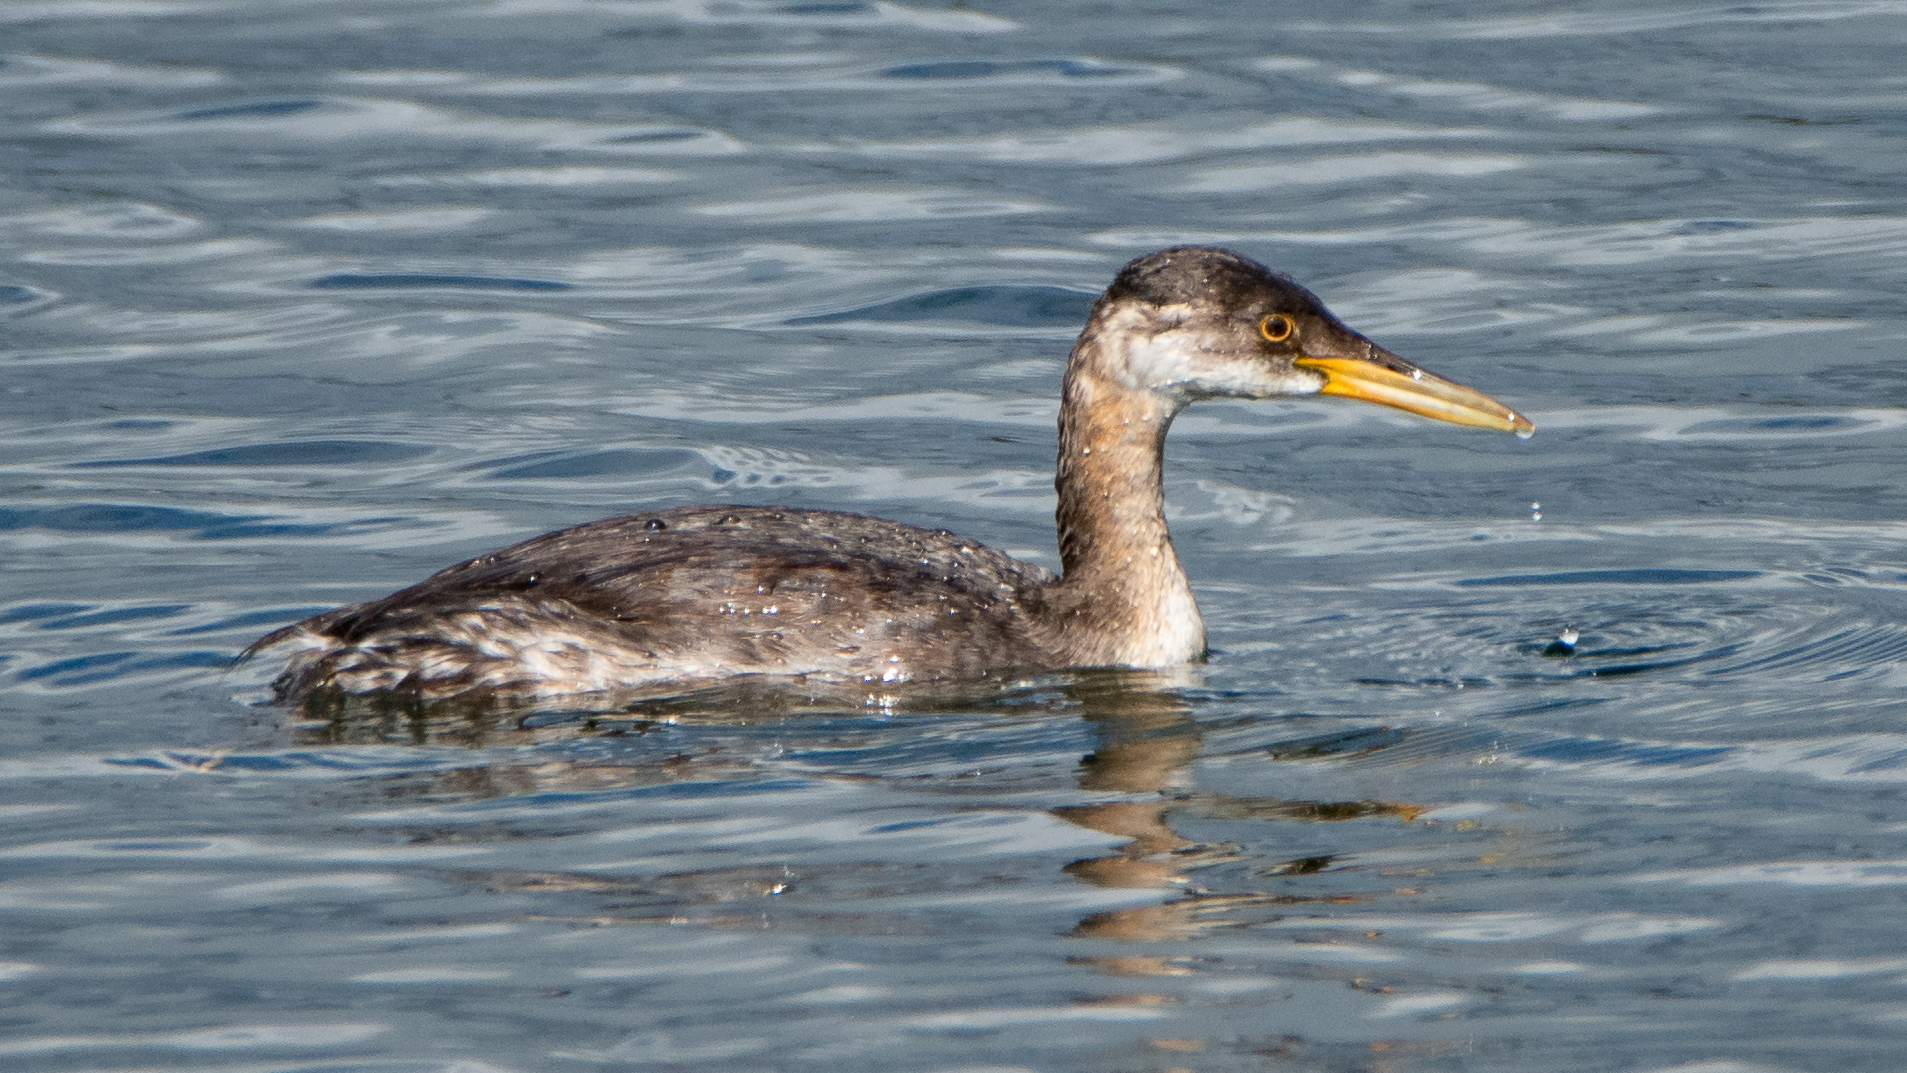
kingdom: Animalia
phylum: Chordata
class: Aves
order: Podicipediformes
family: Podicipedidae
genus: Podiceps
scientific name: Podiceps grisegena
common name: Red-necked grebe
